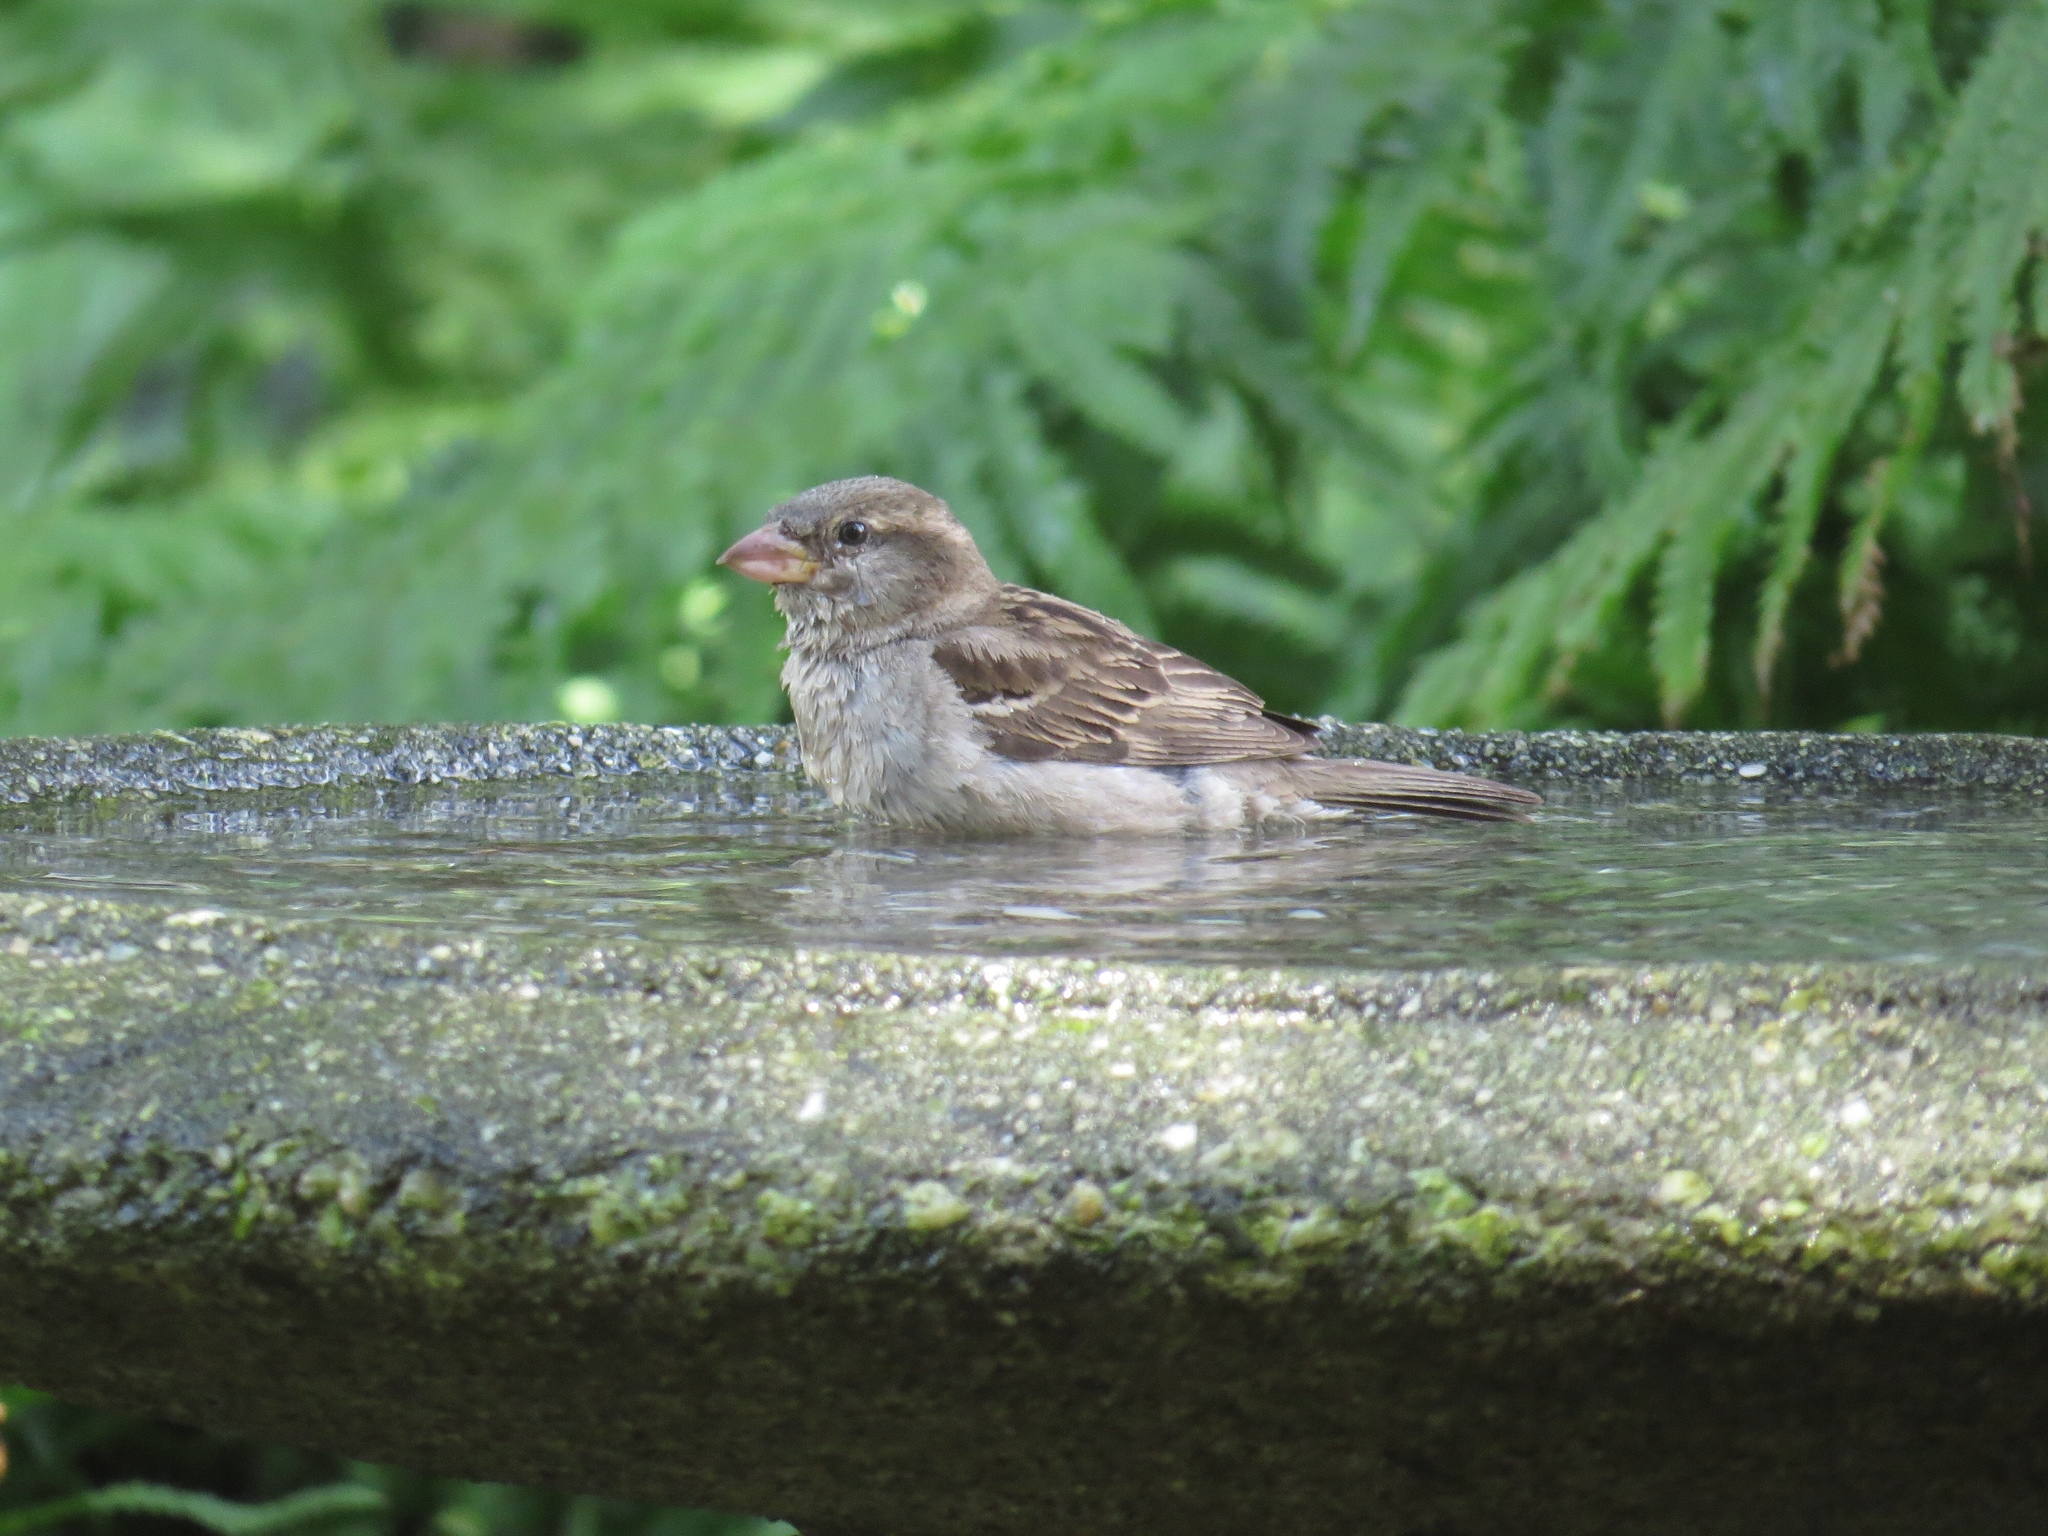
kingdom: Animalia
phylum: Chordata
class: Aves
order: Passeriformes
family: Passeridae
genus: Passer
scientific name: Passer domesticus
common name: House sparrow
